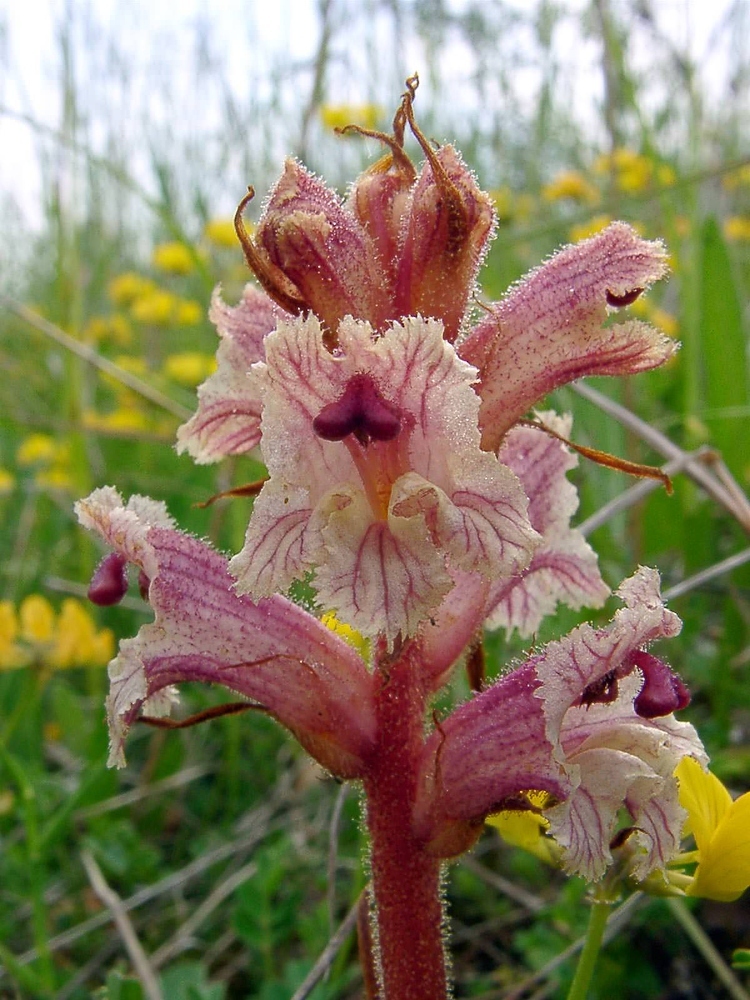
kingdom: Plantae
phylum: Tracheophyta
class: Magnoliopsida
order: Lamiales
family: Orobanchaceae
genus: Orobanche
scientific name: Orobanche alba
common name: Thyme broomrape
